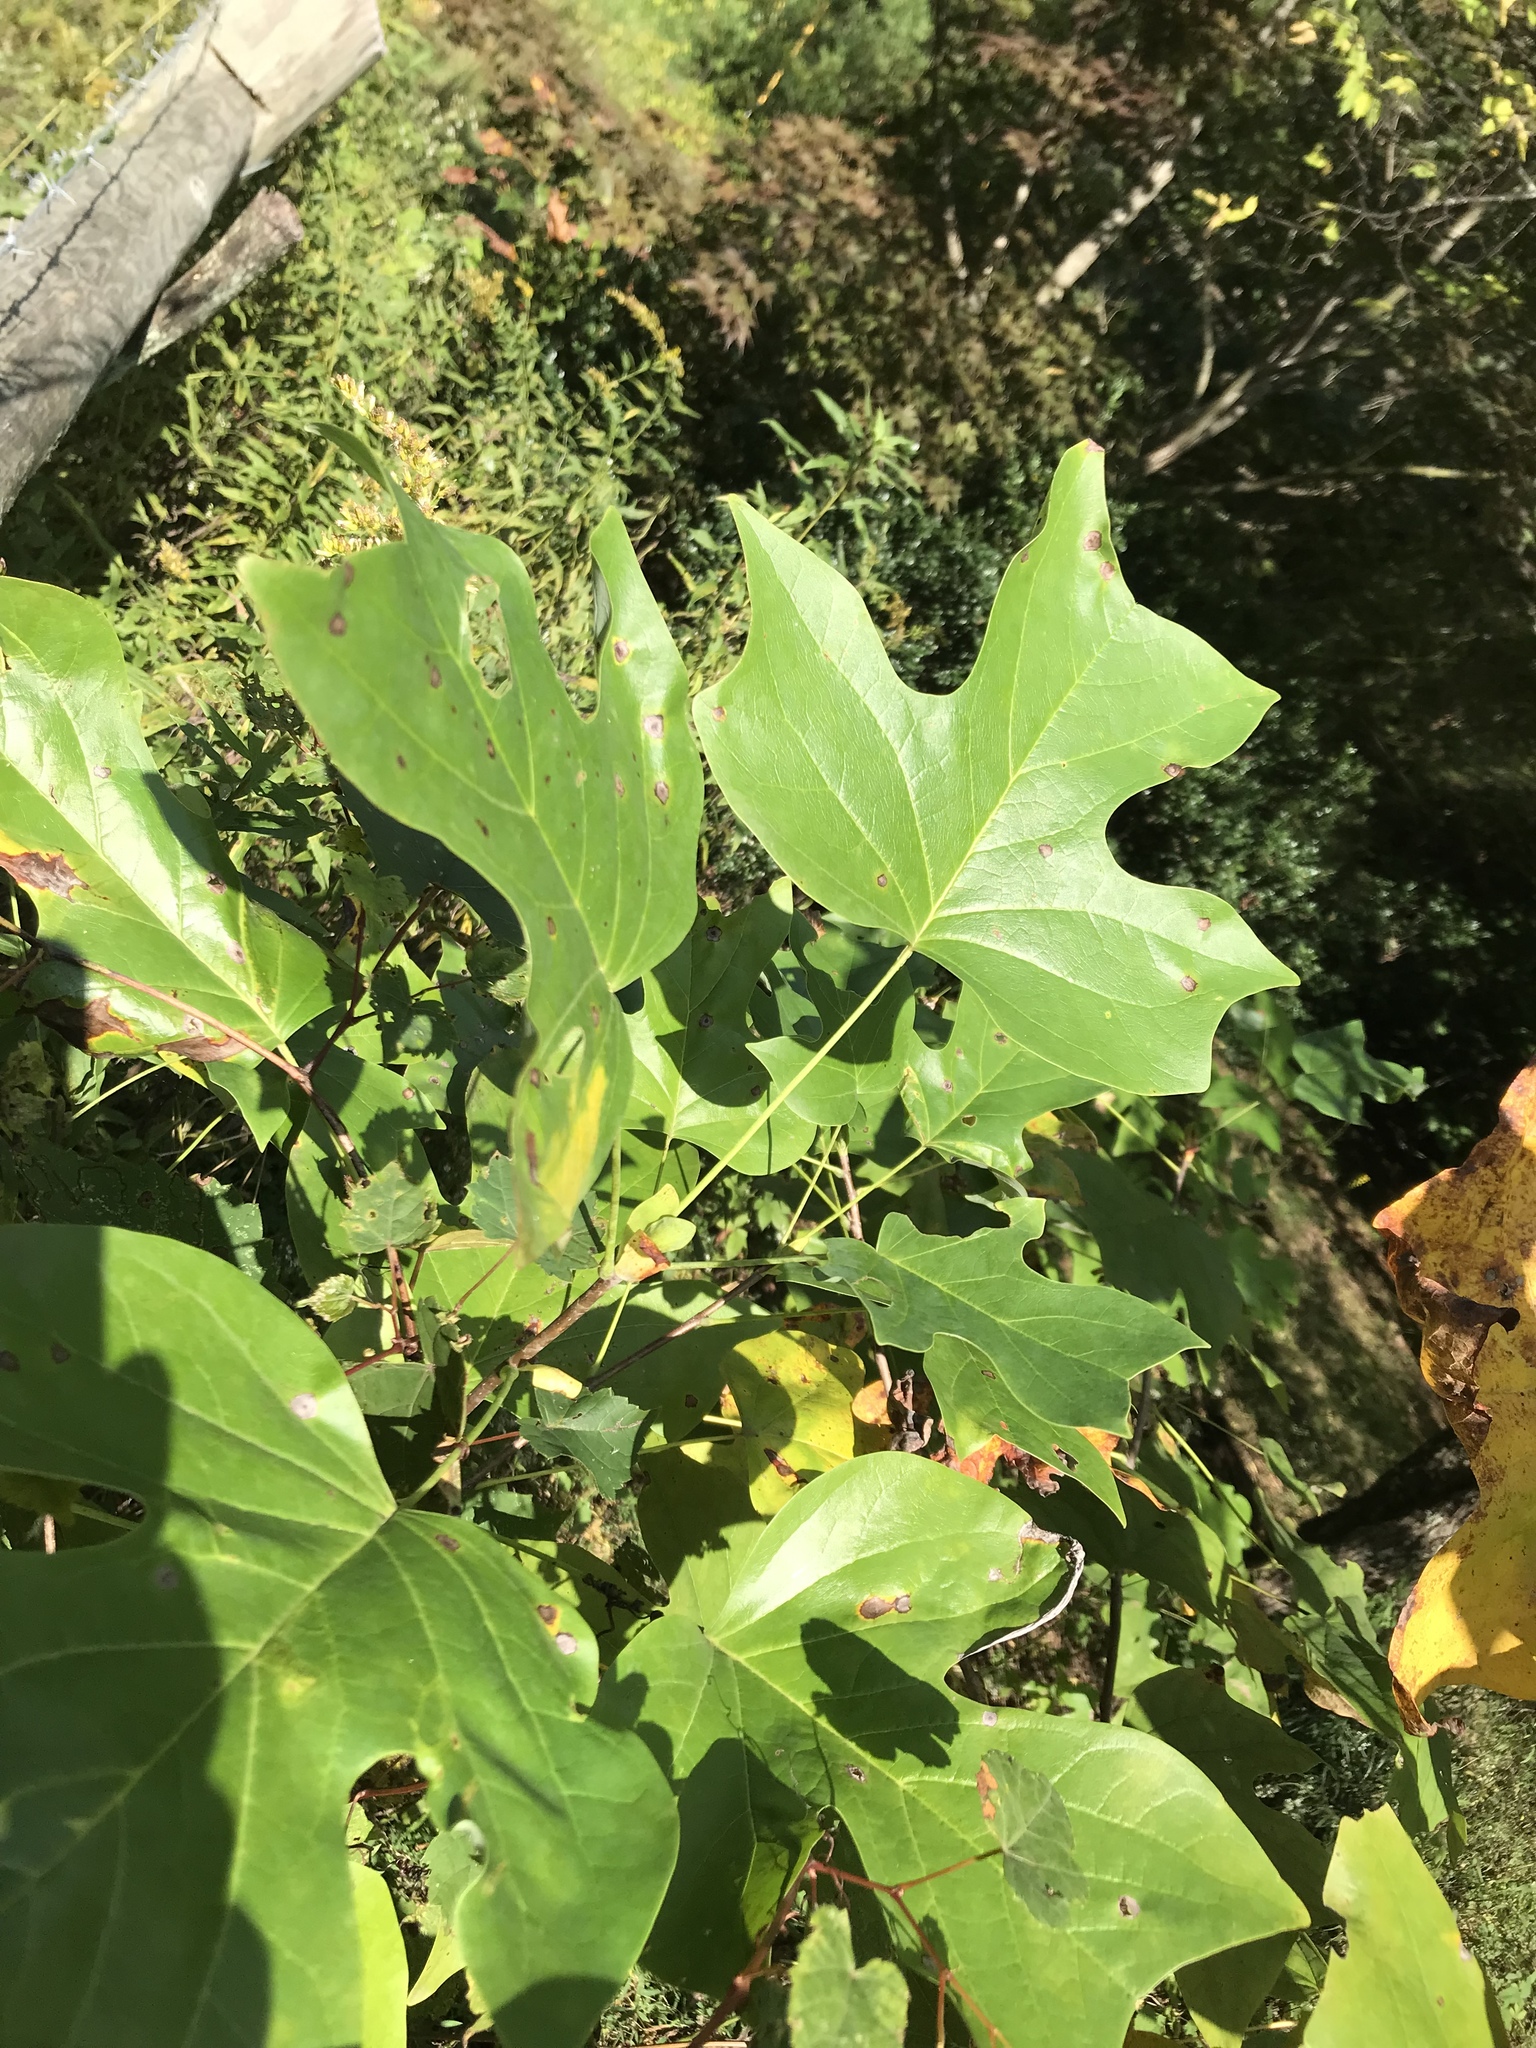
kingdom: Plantae
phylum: Tracheophyta
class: Magnoliopsida
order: Magnoliales
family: Magnoliaceae
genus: Liriodendron
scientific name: Liriodendron tulipifera
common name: Tulip tree
